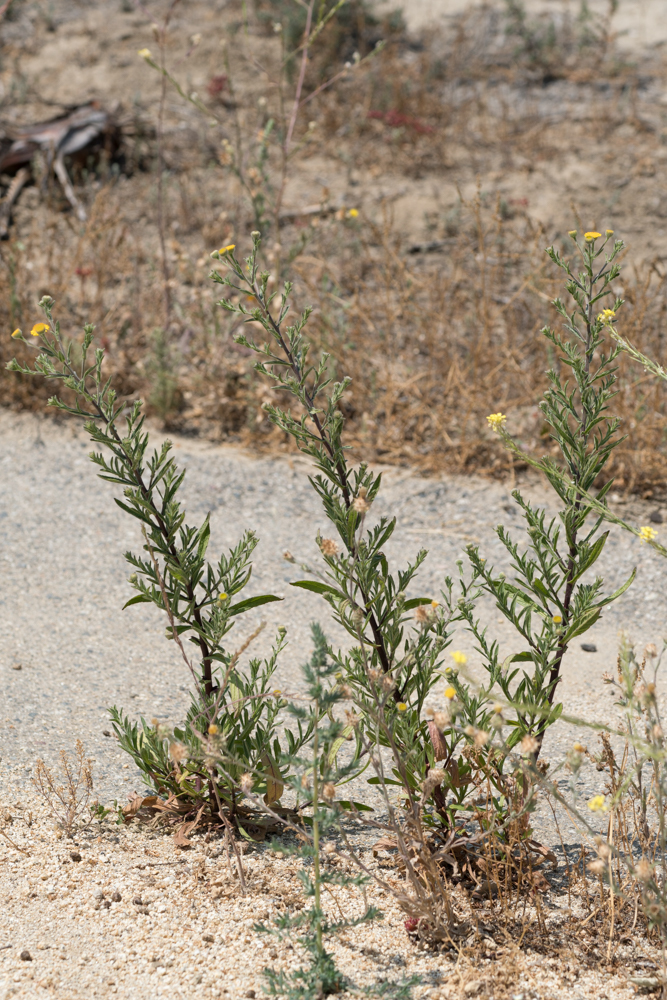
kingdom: Plantae
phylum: Tracheophyta
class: Magnoliopsida
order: Asterales
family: Asteraceae
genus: Pulicaria
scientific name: Pulicaria paludosa
